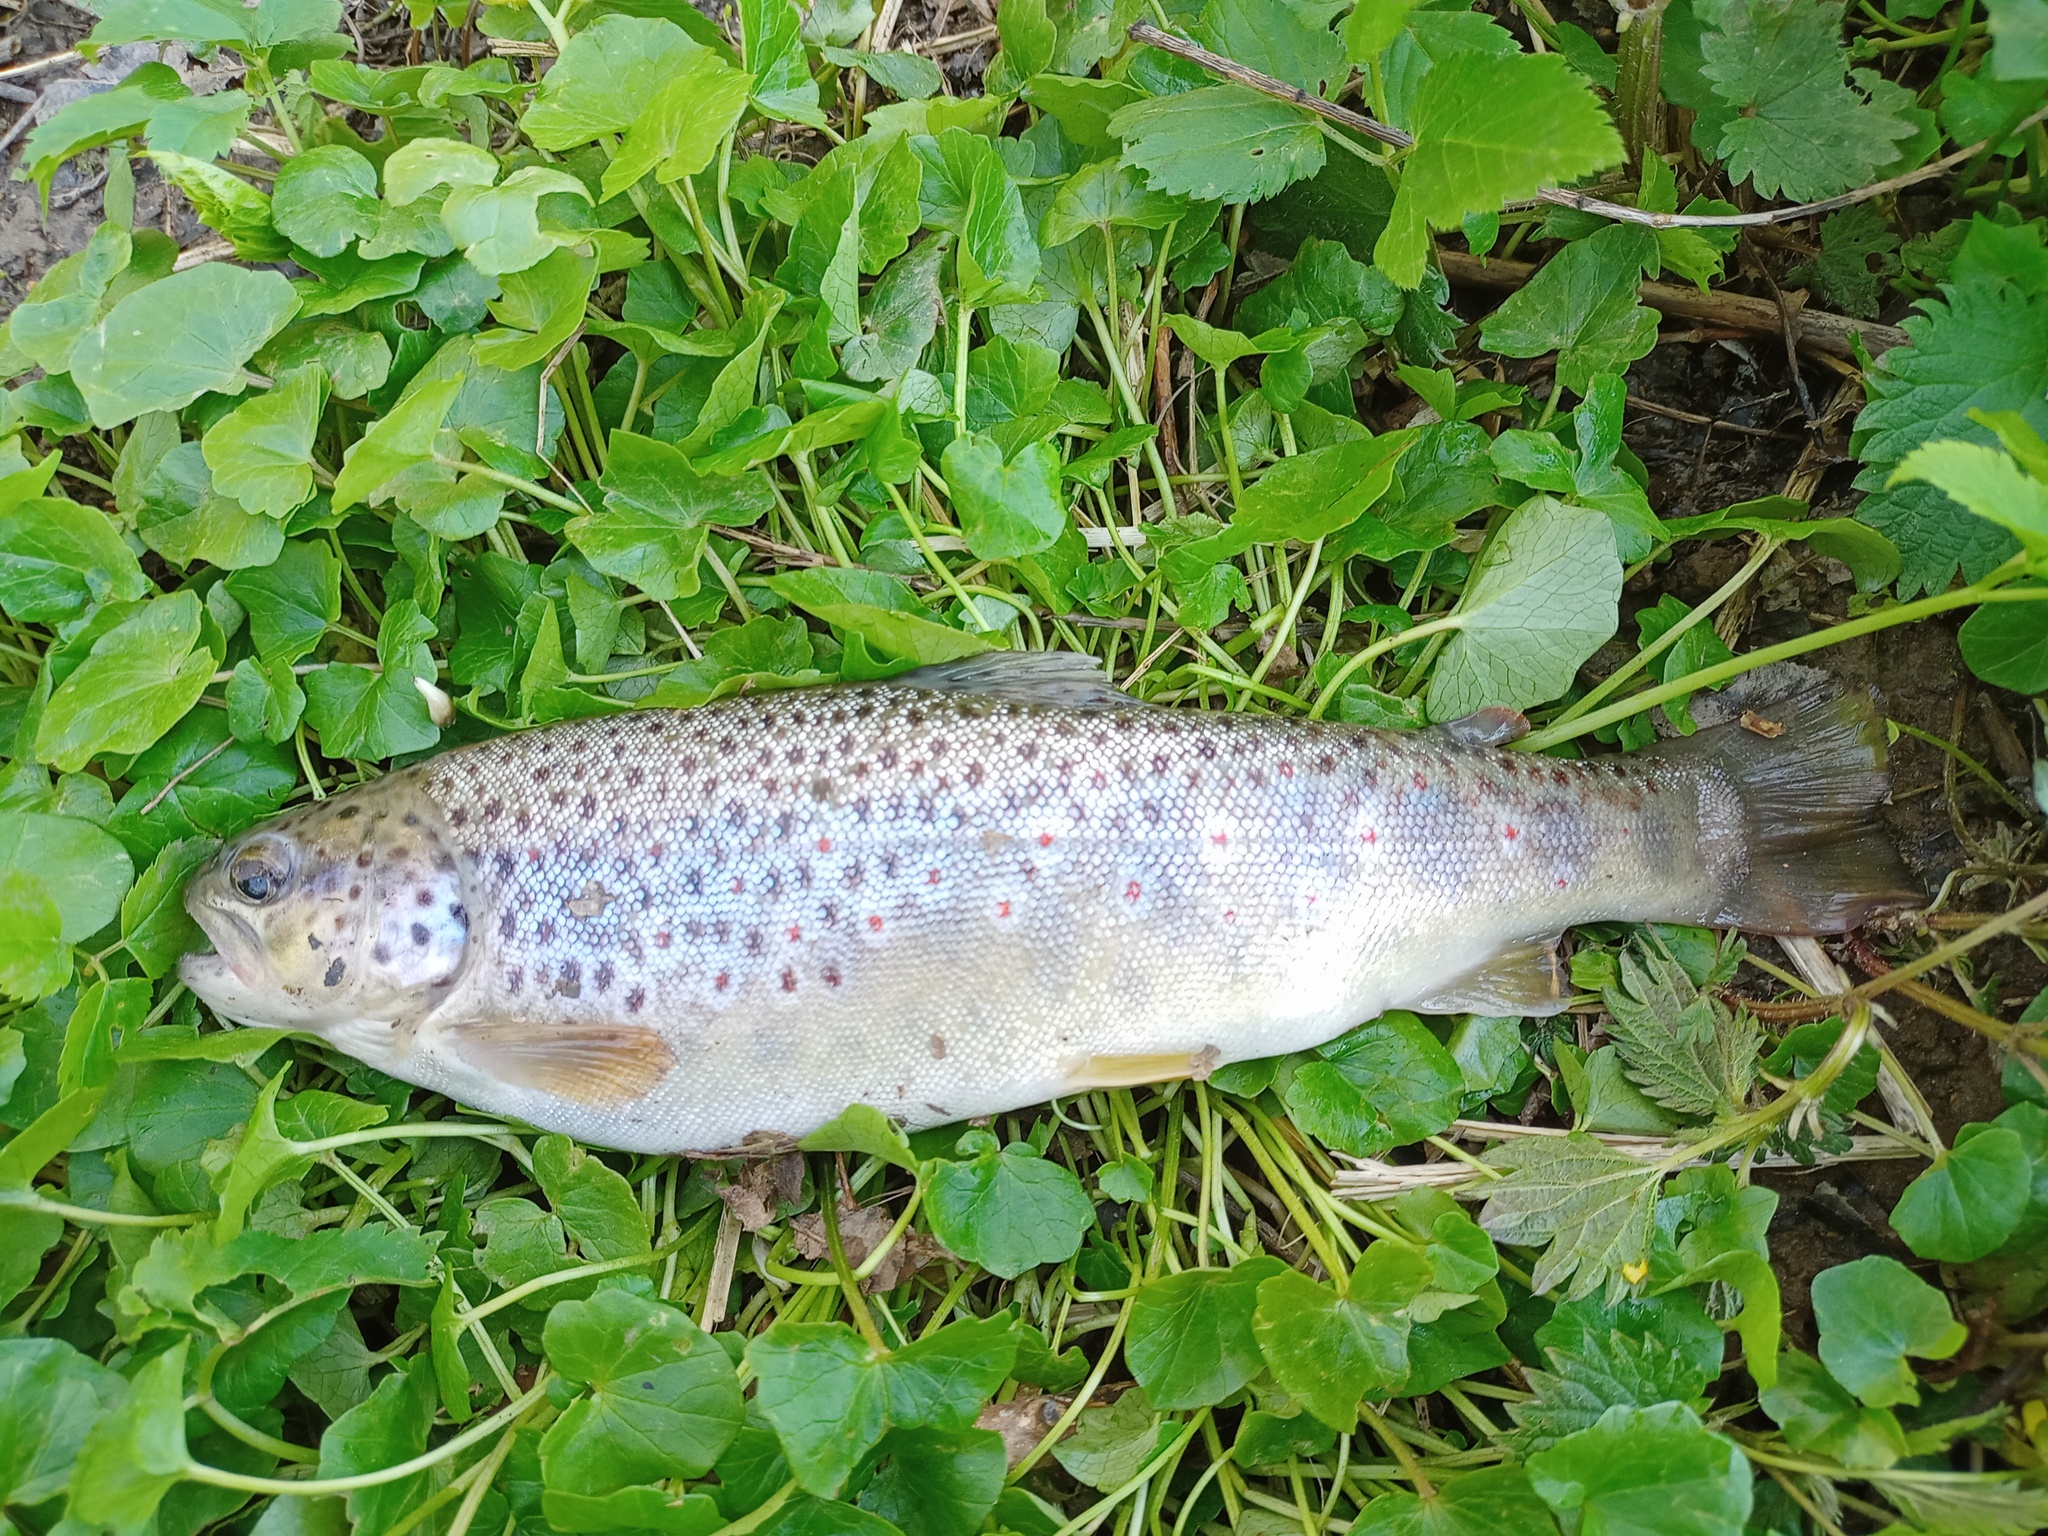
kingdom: Animalia
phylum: Chordata
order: Salmoniformes
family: Salmonidae
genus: Salmo
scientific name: Salmo trutta
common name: Brown trout
